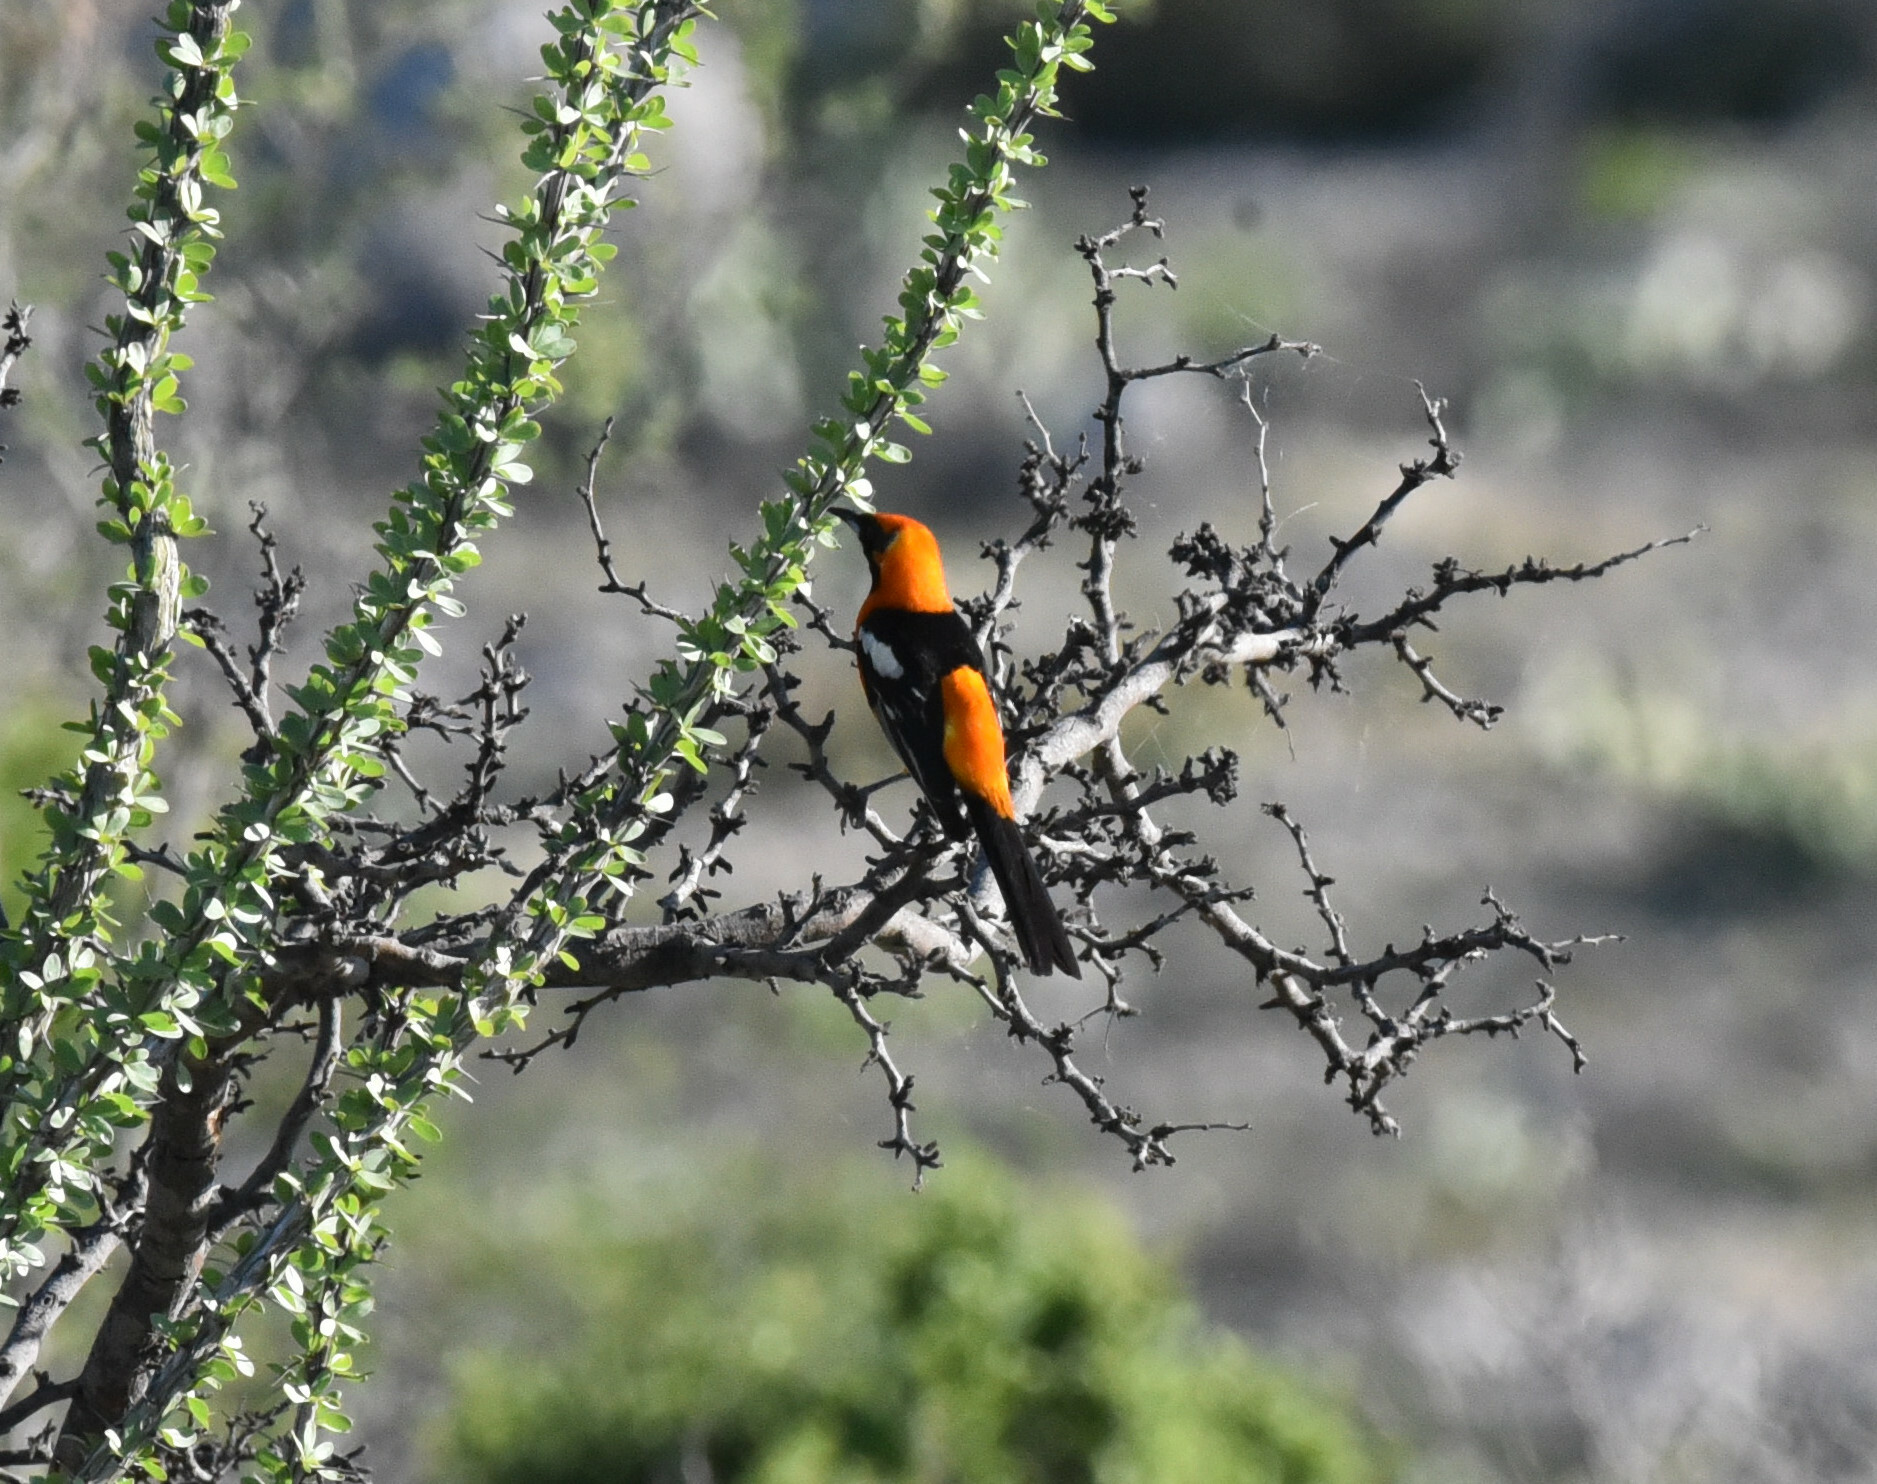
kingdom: Animalia
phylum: Chordata
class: Aves
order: Passeriformes
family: Icteridae
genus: Icterus
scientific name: Icterus cucullatus
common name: Hooded oriole
